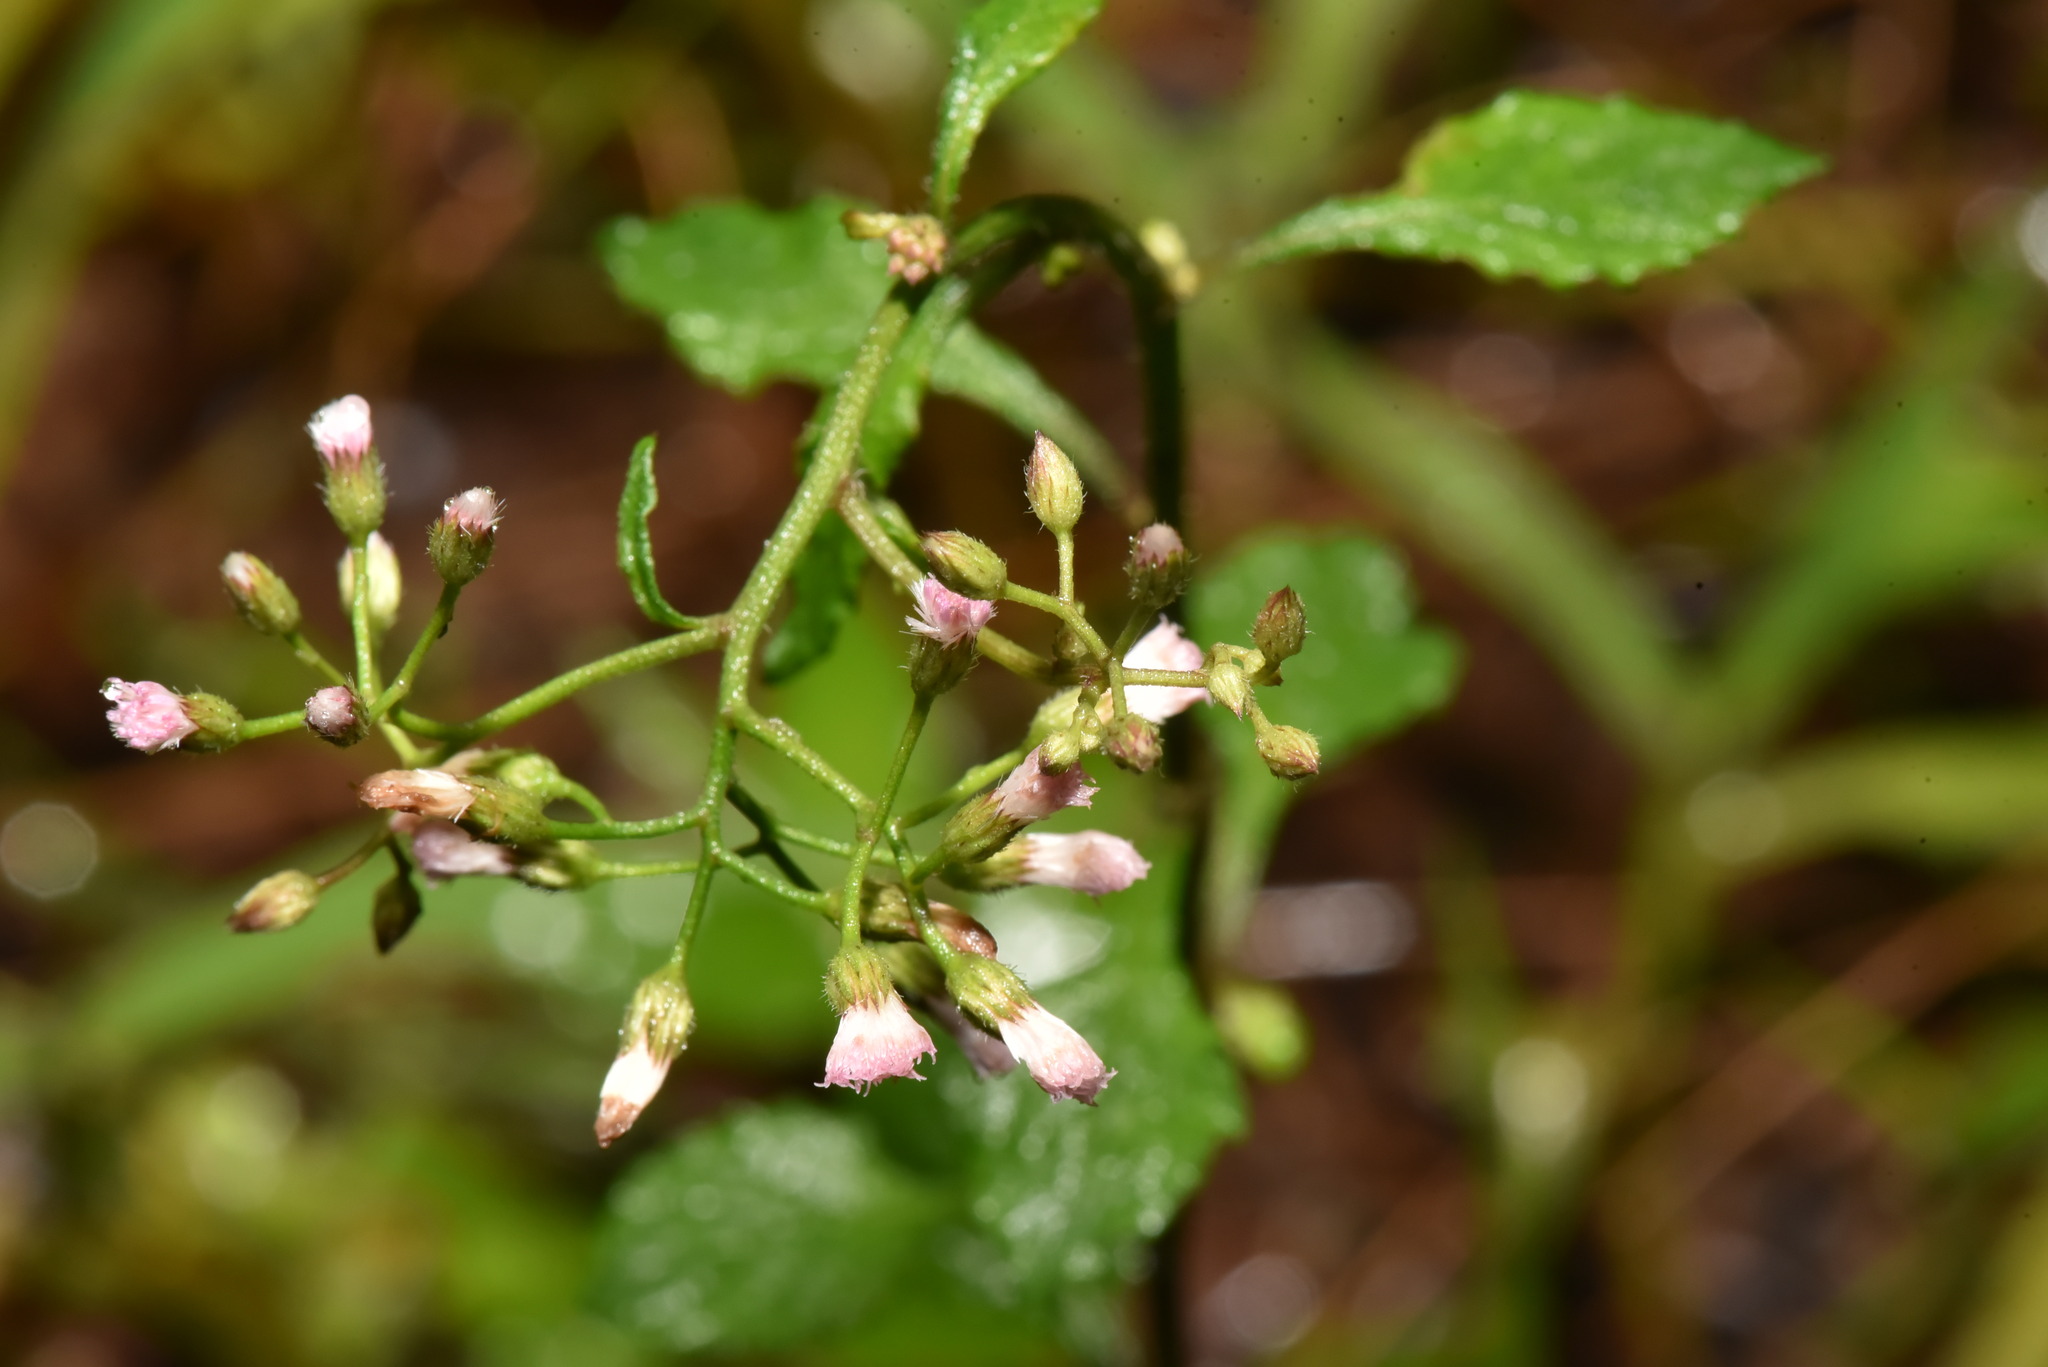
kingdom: Plantae
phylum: Tracheophyta
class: Magnoliopsida
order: Asterales
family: Asteraceae
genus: Cyanthillium
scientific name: Cyanthillium cinereum
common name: Little ironweed
